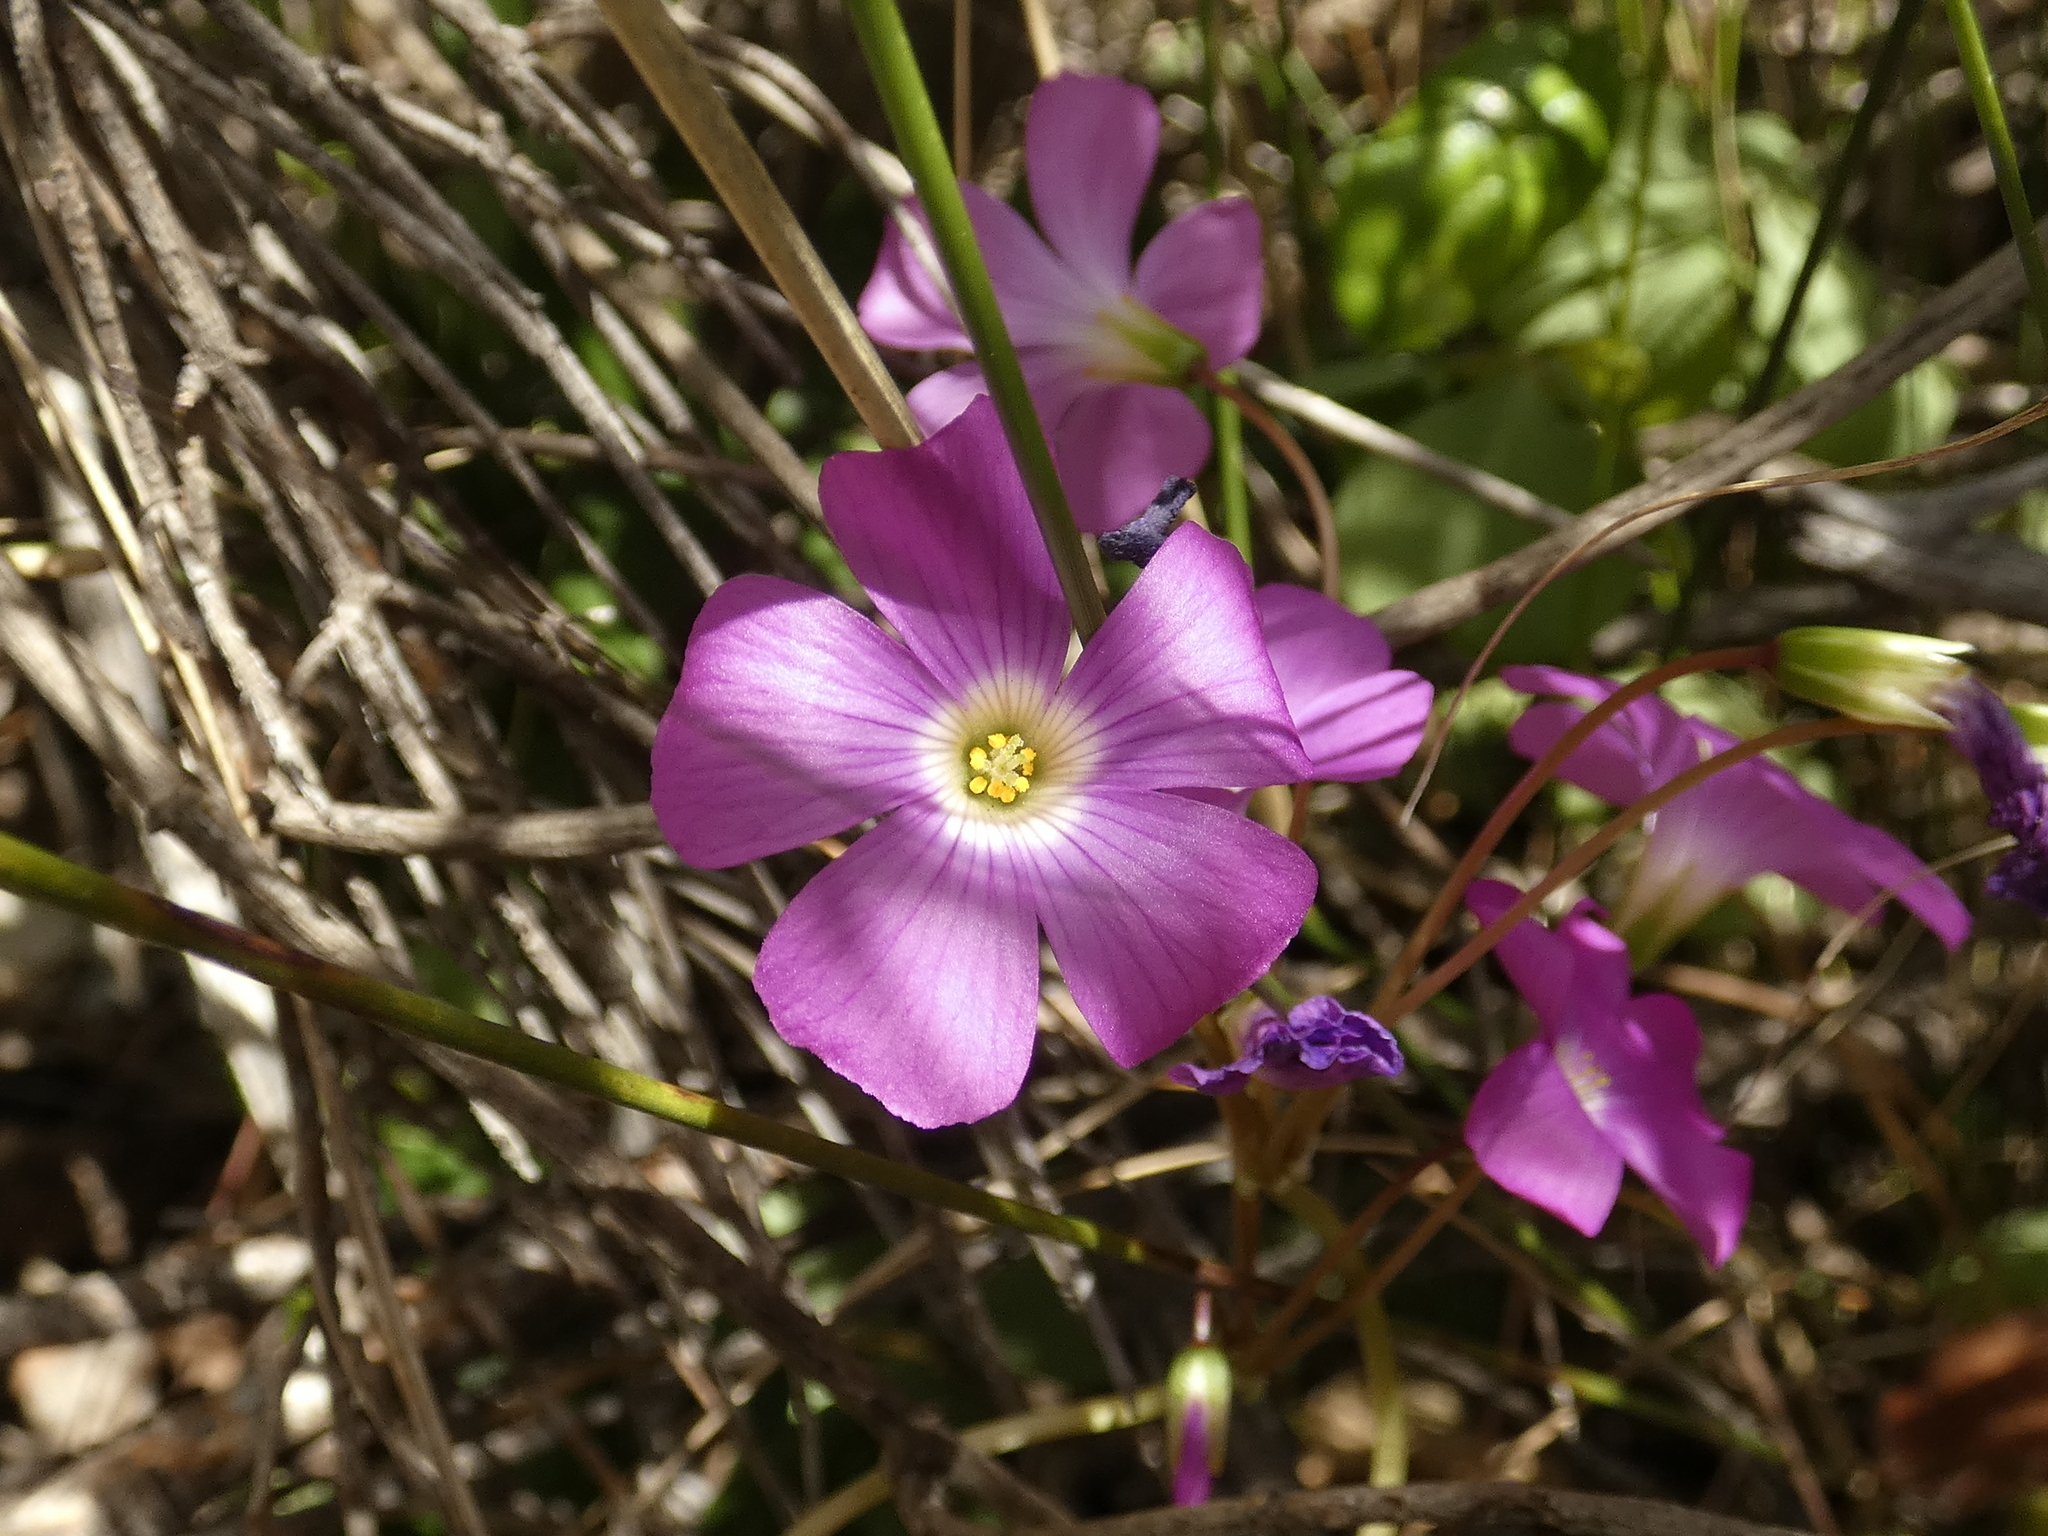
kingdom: Plantae
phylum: Tracheophyta
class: Magnoliopsida
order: Oxalidales
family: Oxalidaceae
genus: Oxalis
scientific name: Oxalis arenaria
